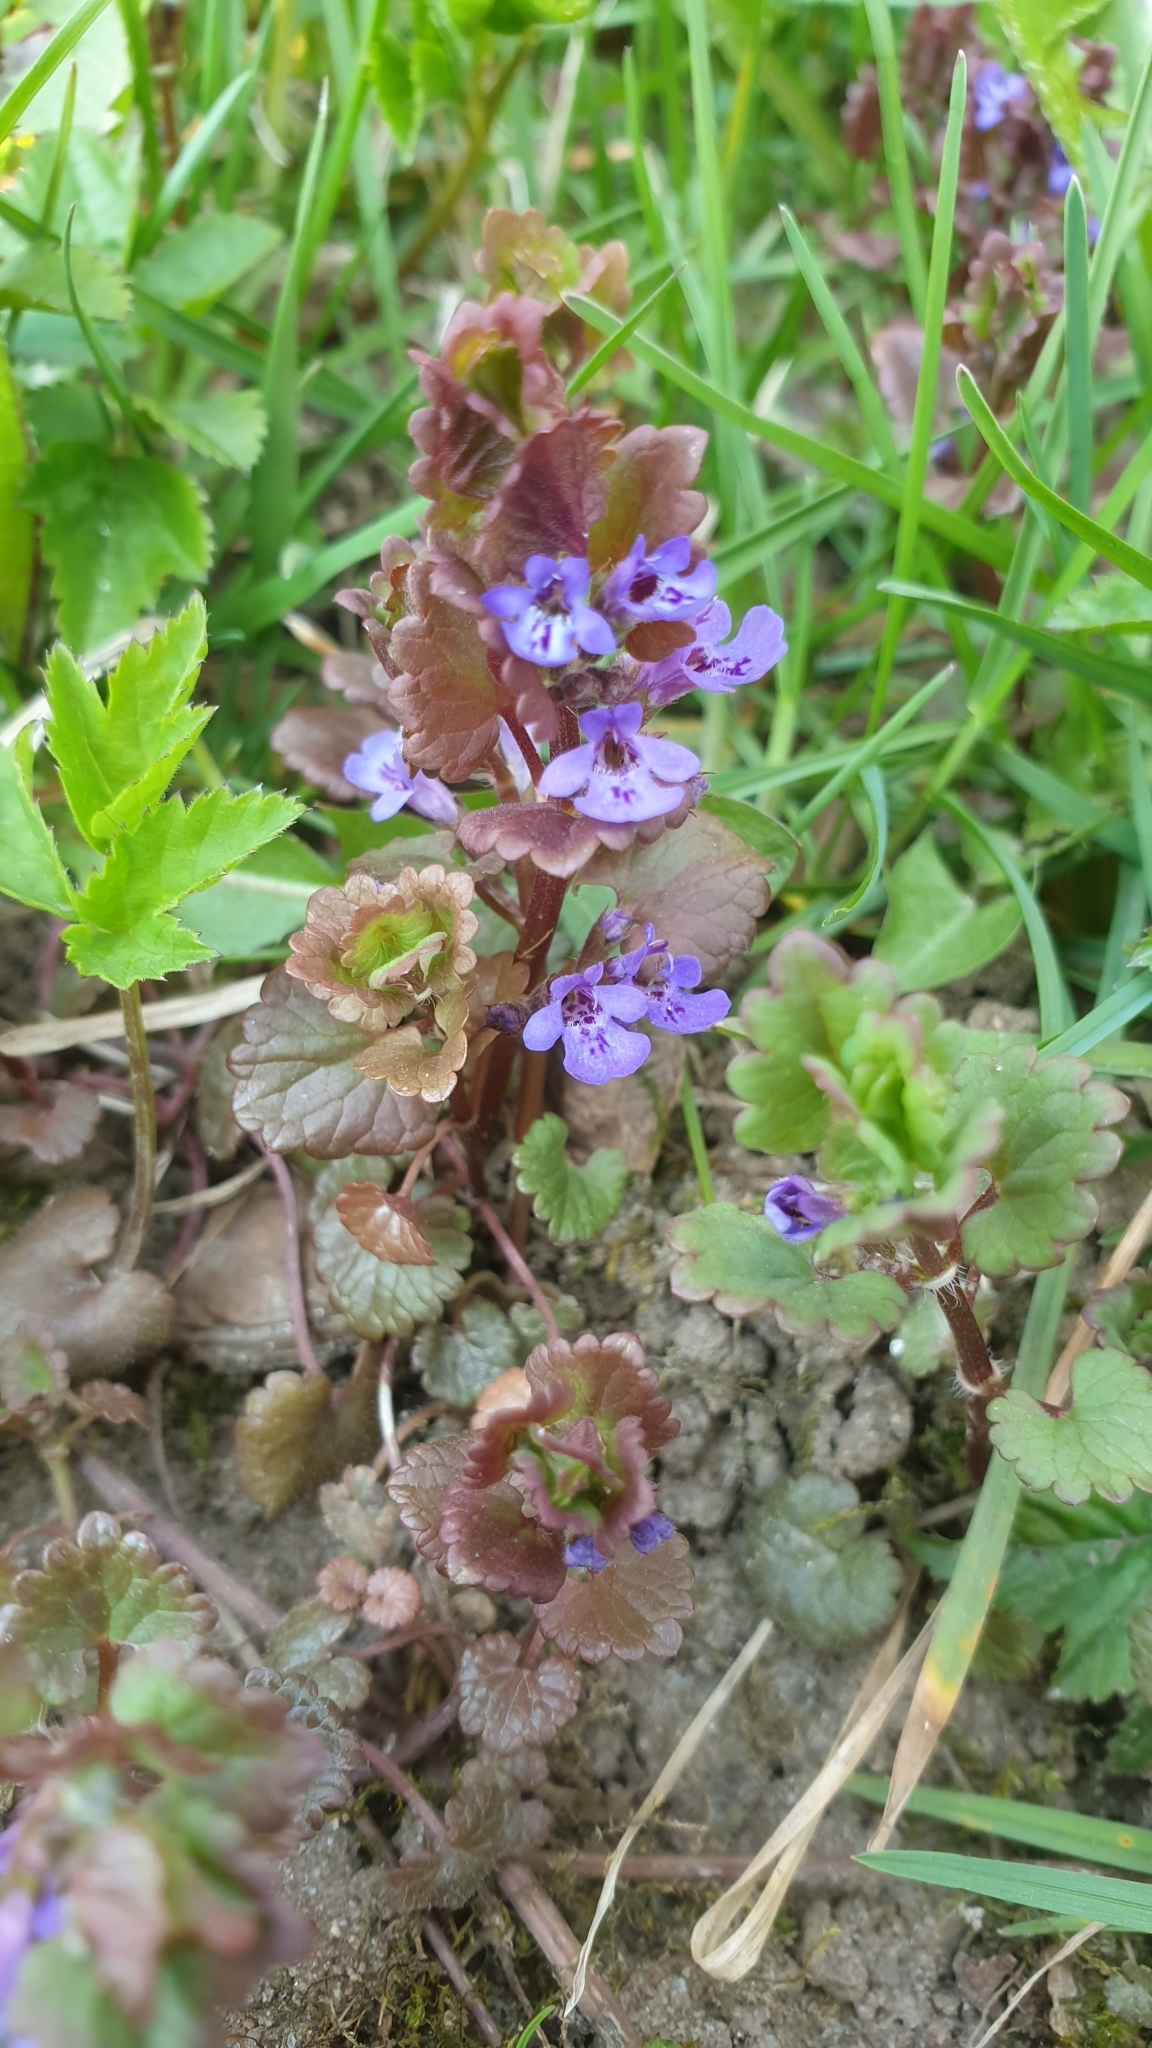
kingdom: Plantae
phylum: Tracheophyta
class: Magnoliopsida
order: Lamiales
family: Lamiaceae
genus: Glechoma
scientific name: Glechoma hederacea
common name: Ground ivy
